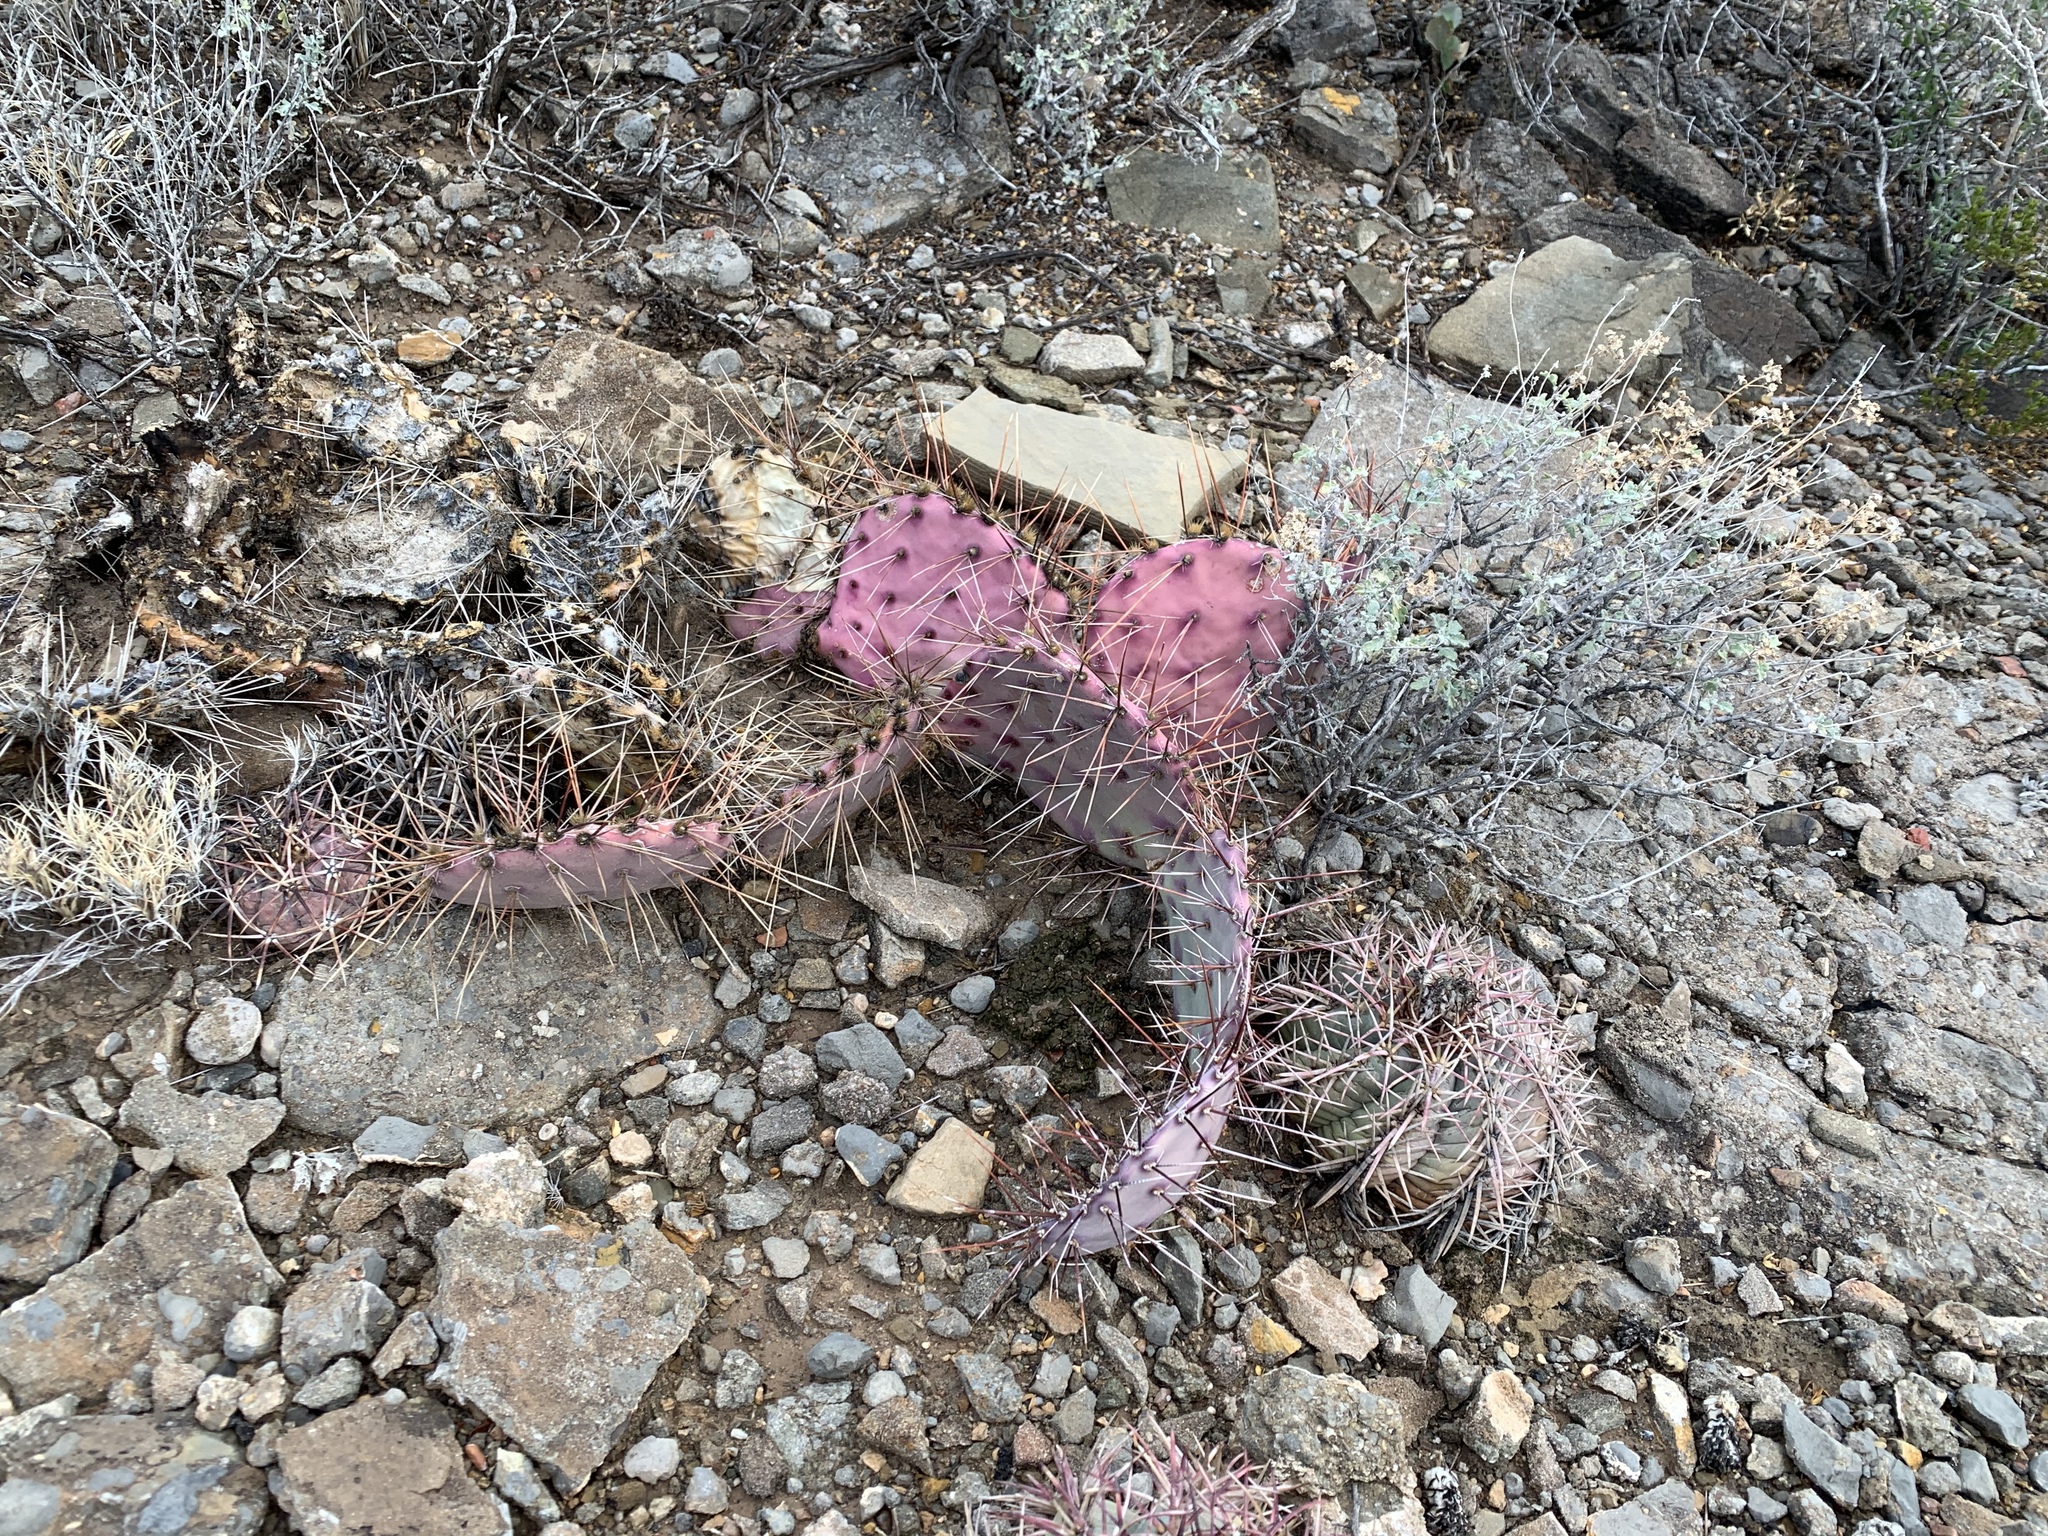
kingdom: Plantae
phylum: Tracheophyta
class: Magnoliopsida
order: Caryophyllales
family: Cactaceae
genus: Opuntia
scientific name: Opuntia macrocentra
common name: Purple prickly-pear
